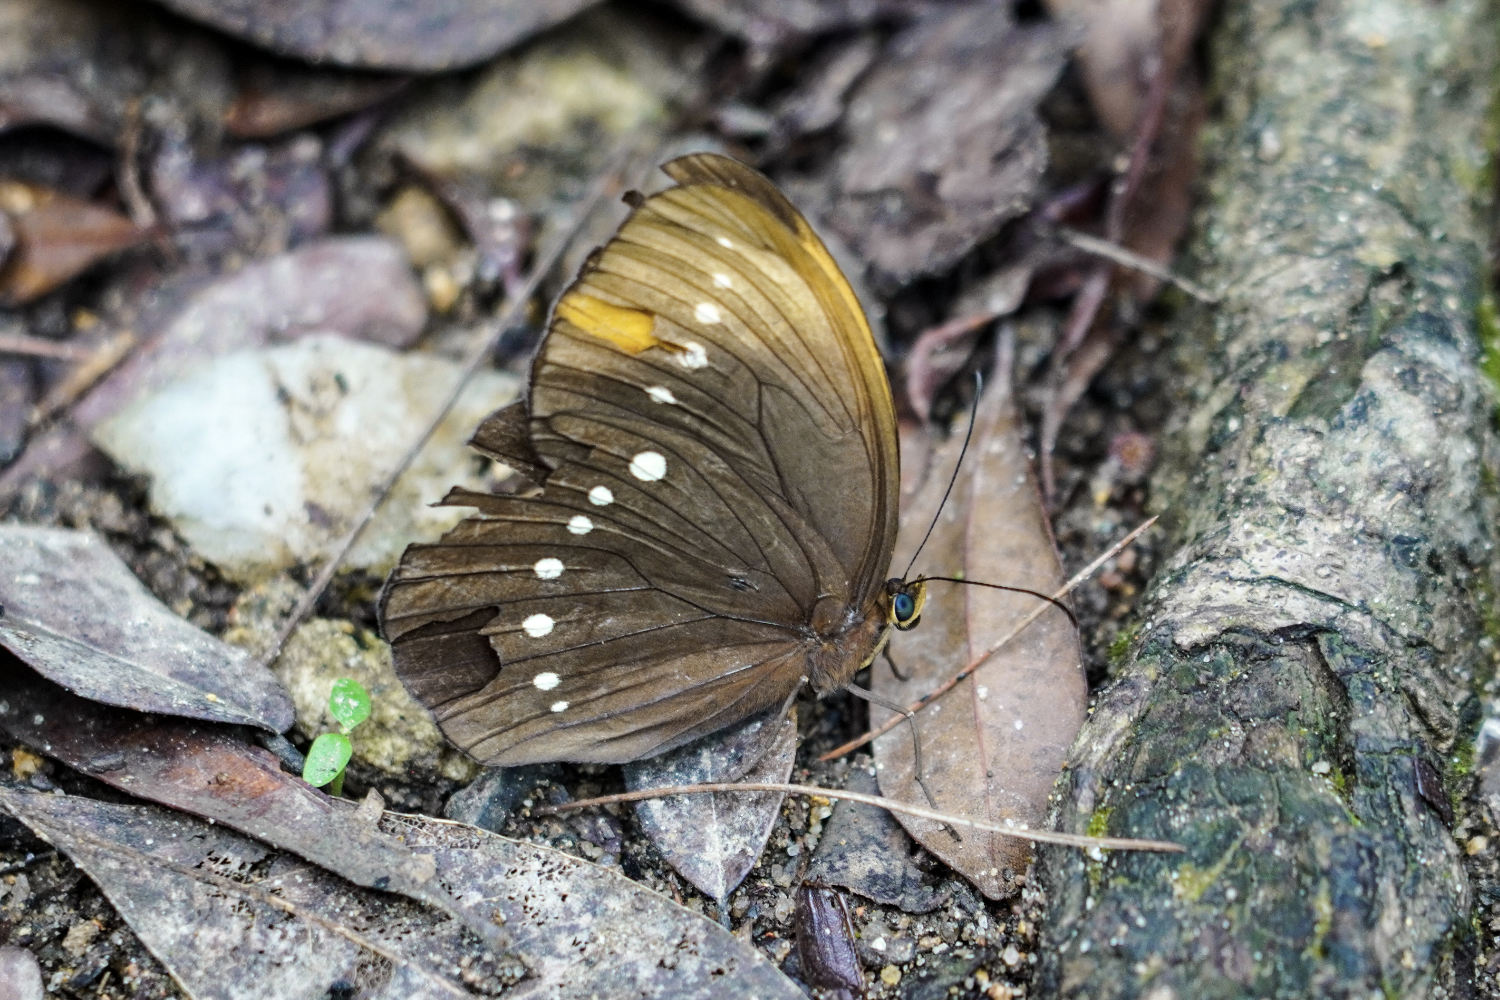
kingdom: Animalia
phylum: Arthropoda
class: Insecta
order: Lepidoptera
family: Nymphalidae
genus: Faunis
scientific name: Faunis eumeus
